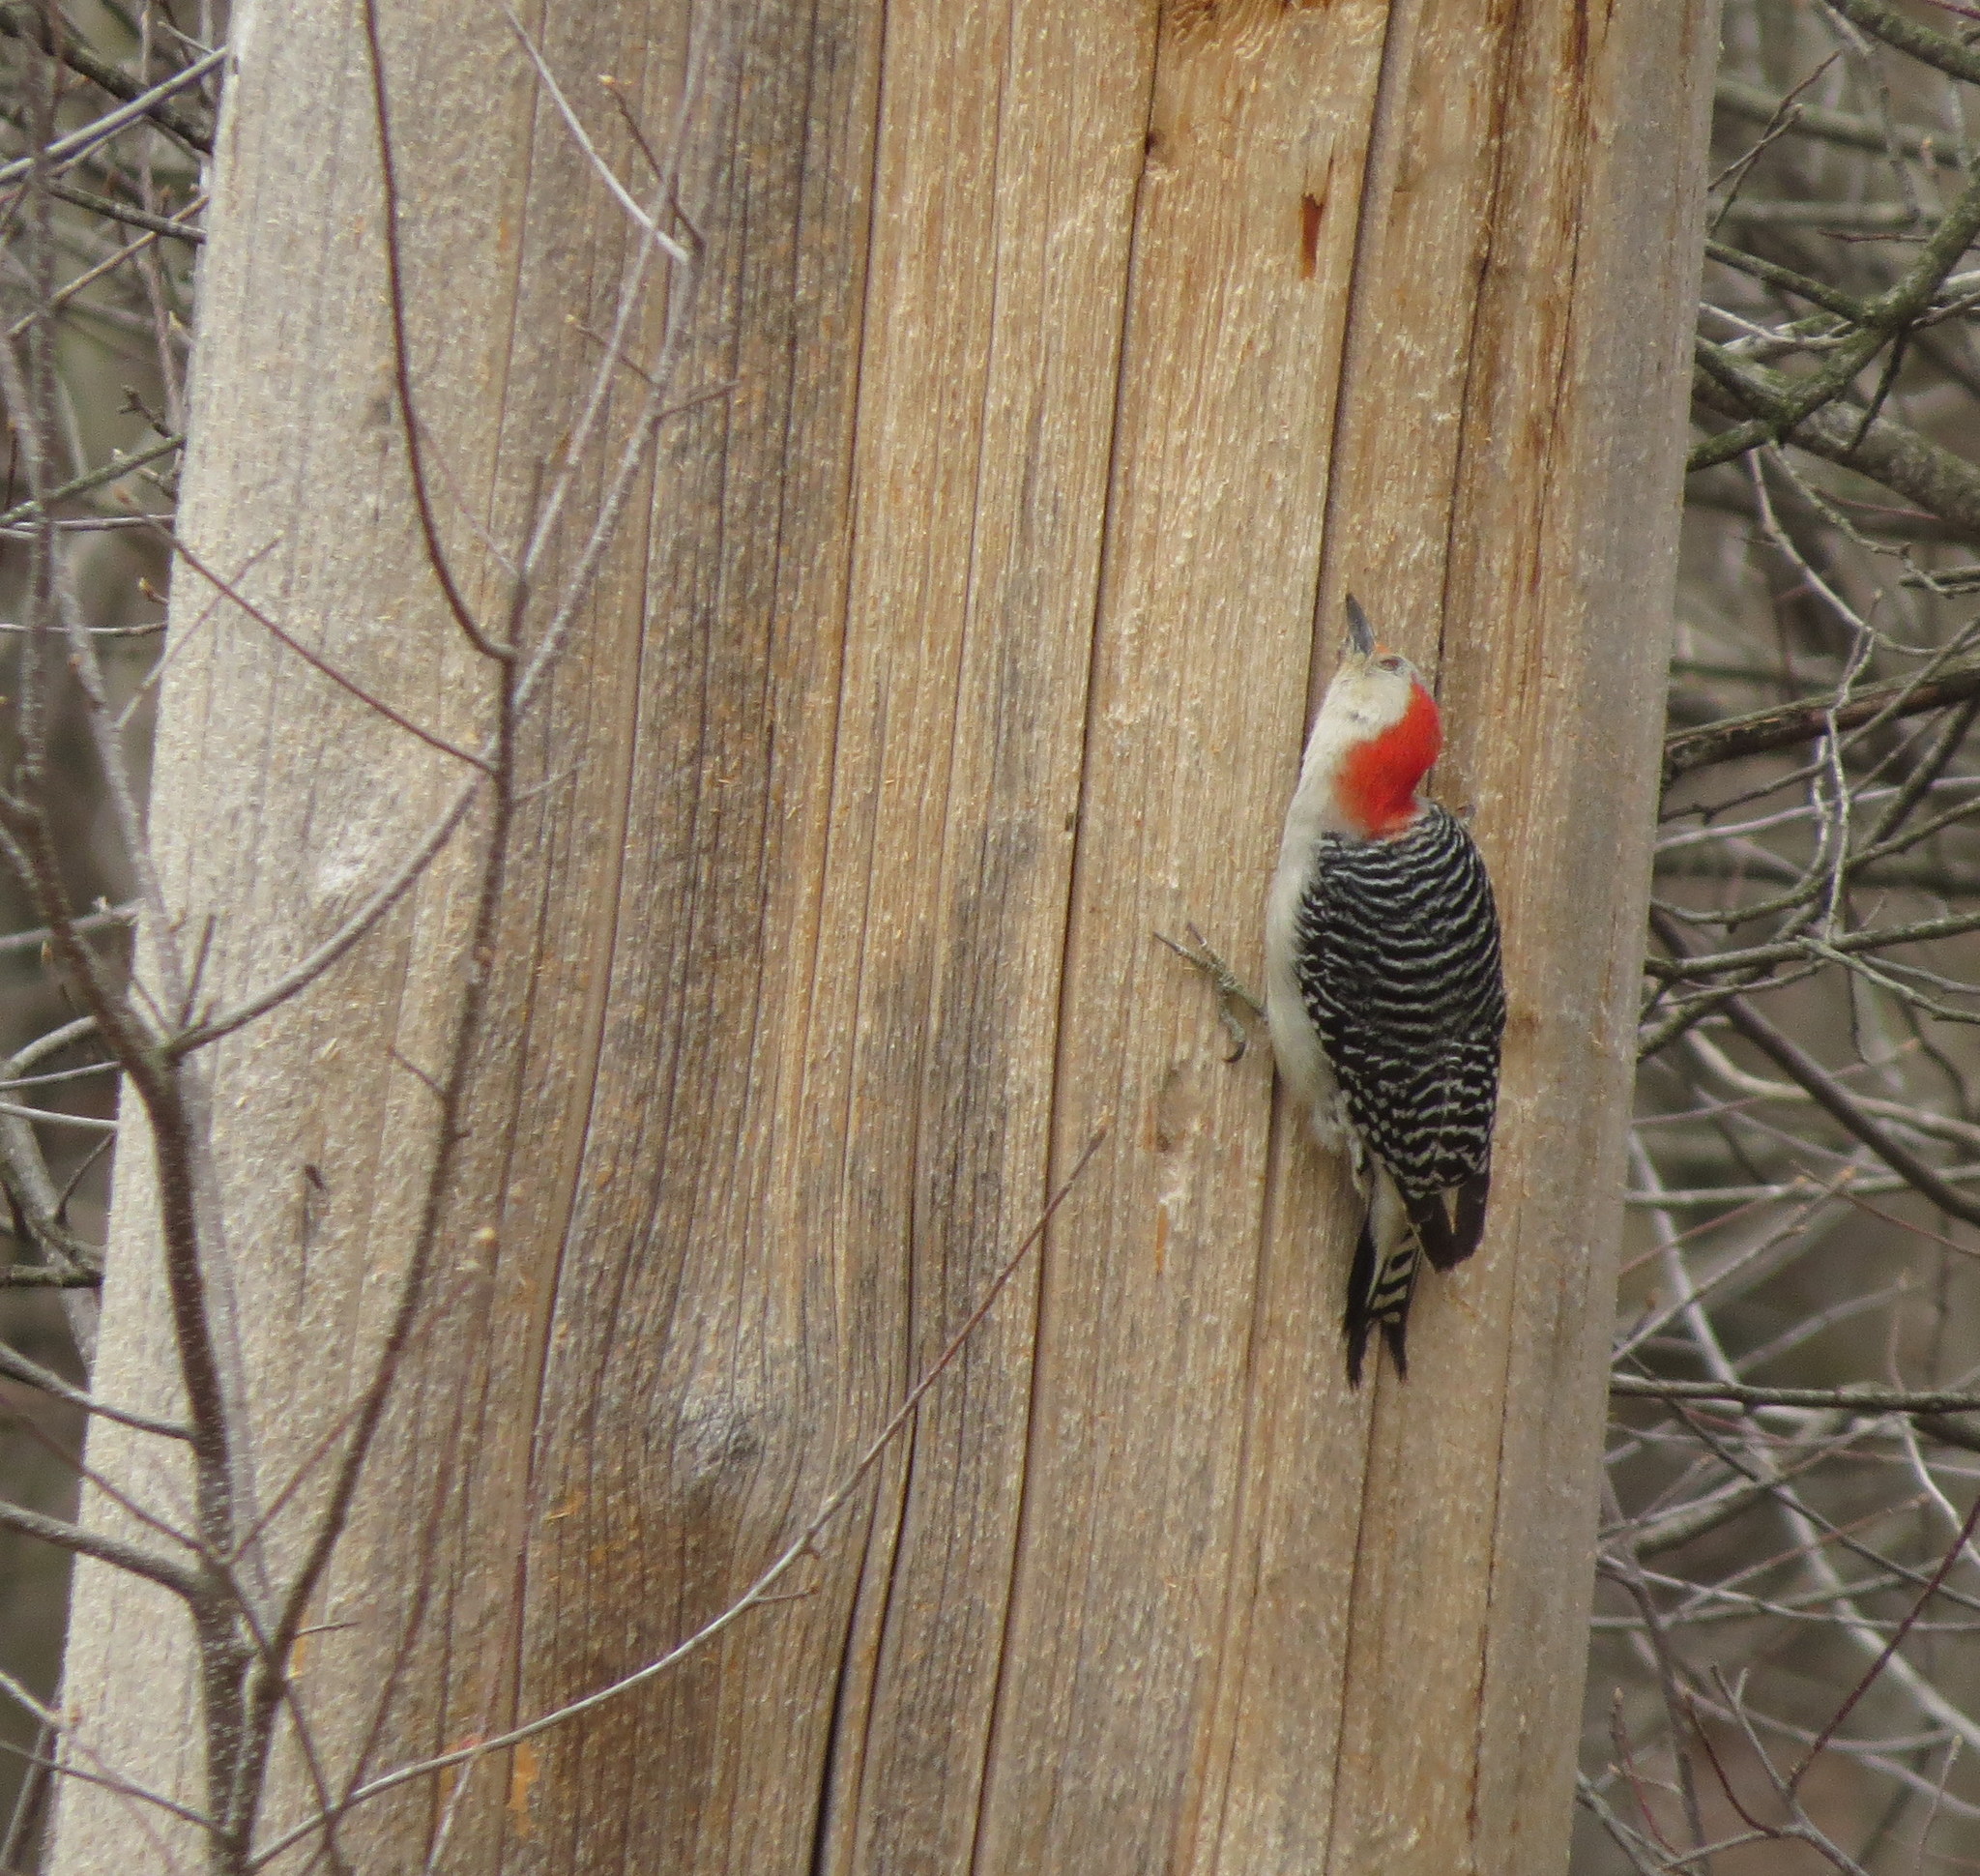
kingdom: Animalia
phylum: Chordata
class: Aves
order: Piciformes
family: Picidae
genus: Melanerpes
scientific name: Melanerpes carolinus
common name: Red-bellied woodpecker
